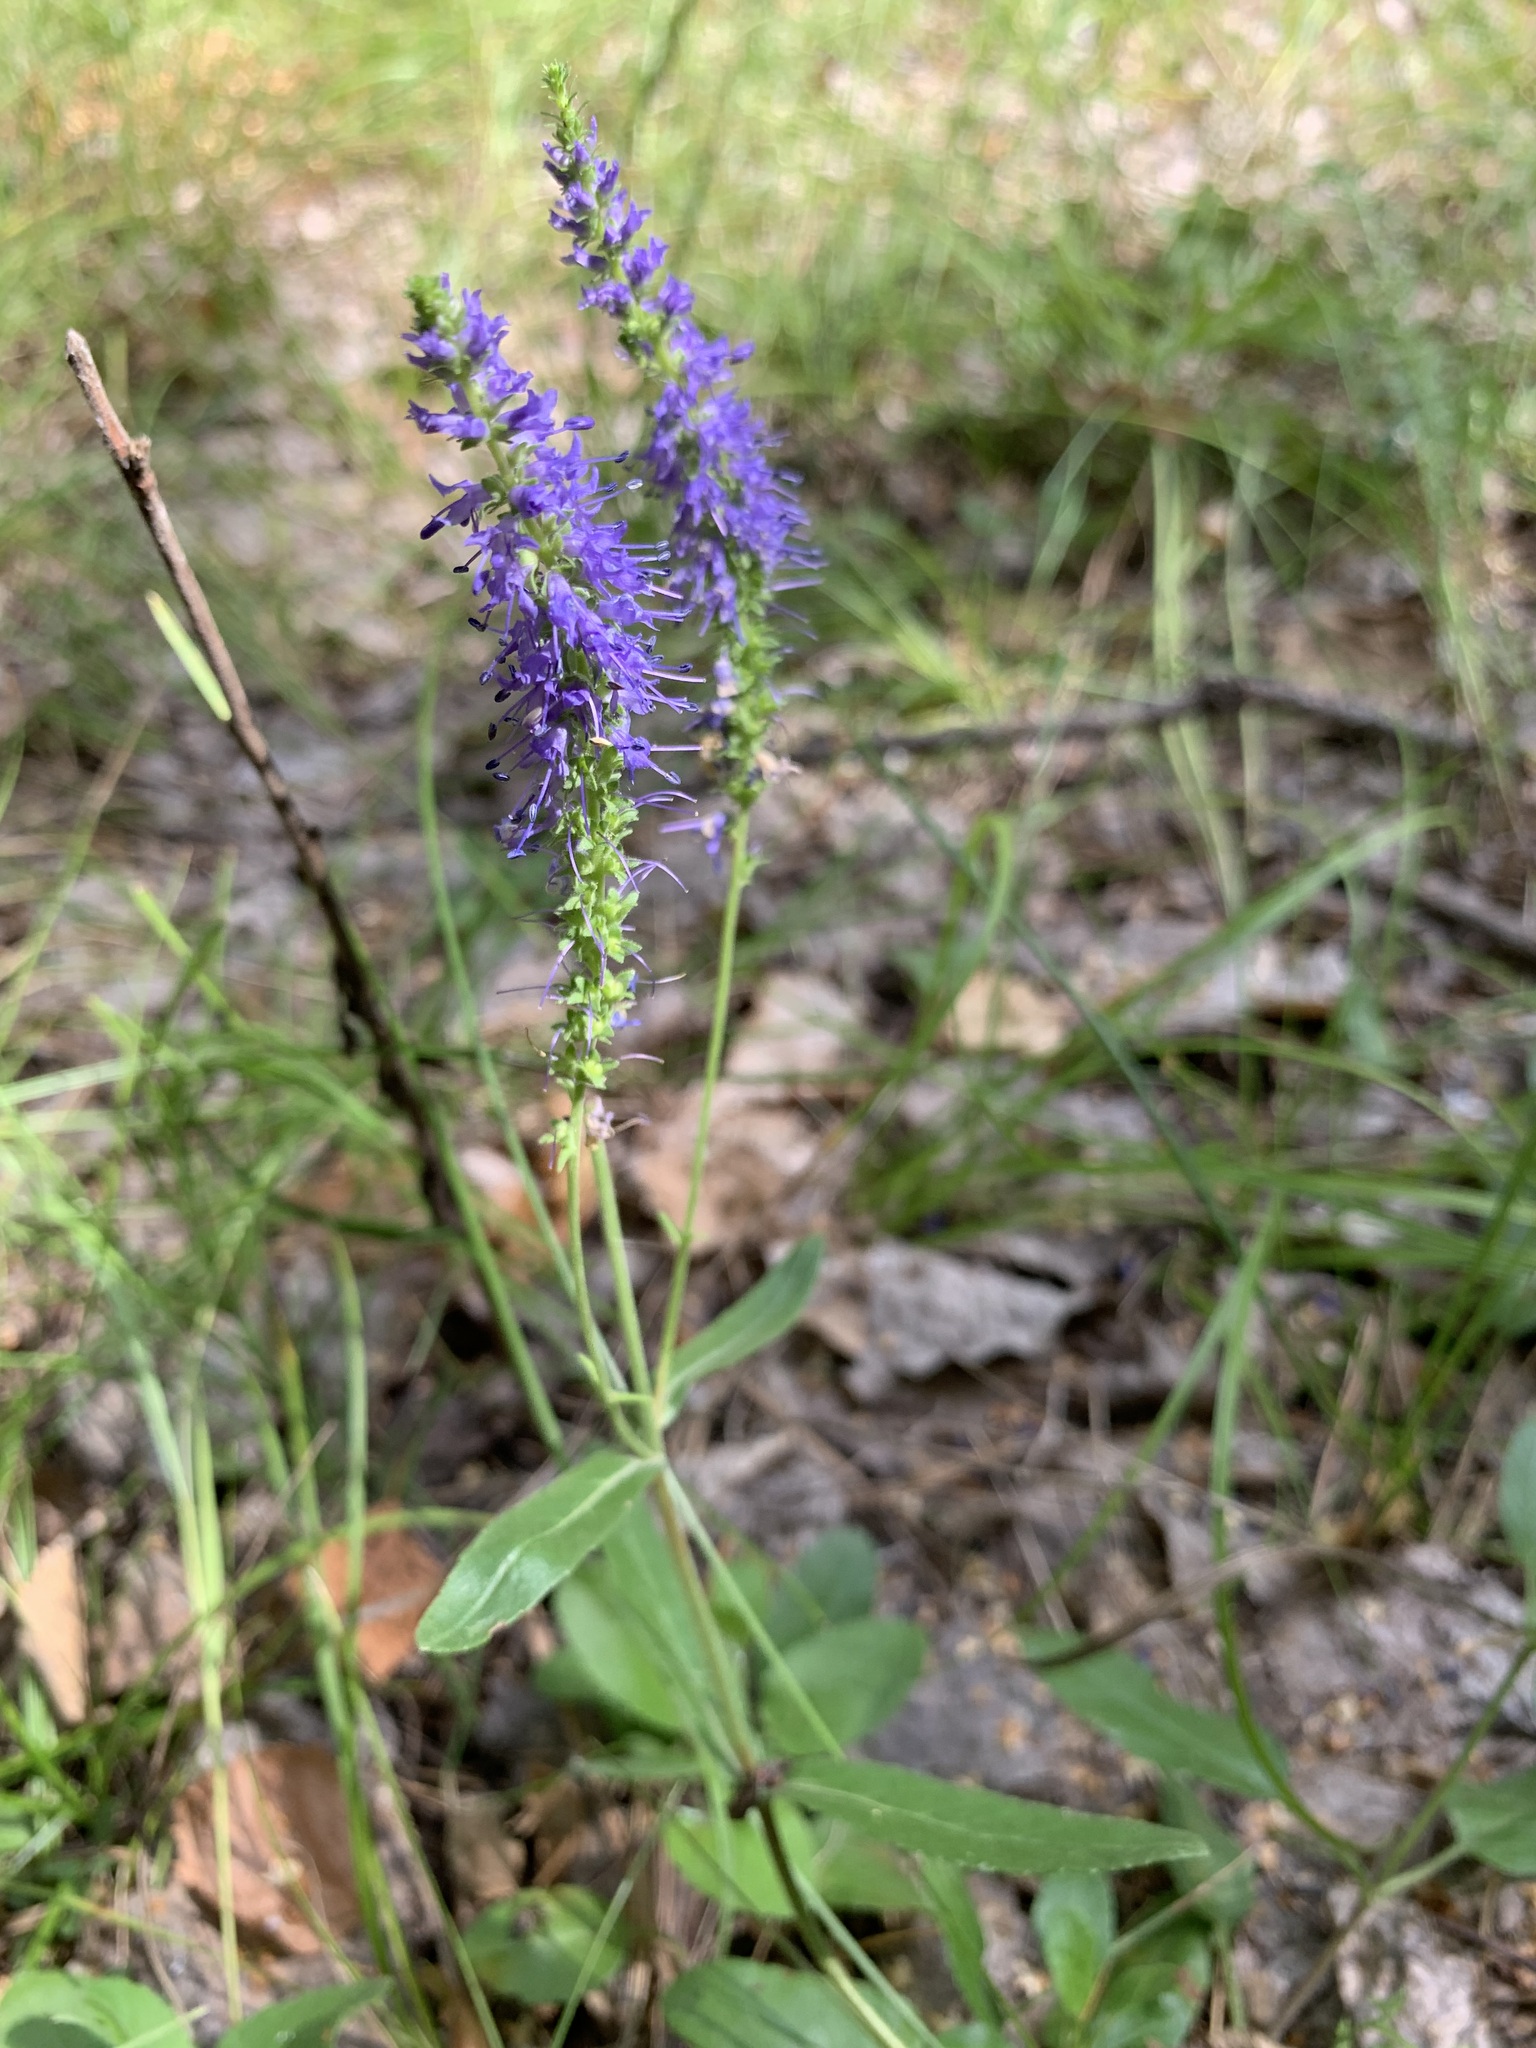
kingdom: Plantae
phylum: Tracheophyta
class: Magnoliopsida
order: Lamiales
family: Plantaginaceae
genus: Veronica
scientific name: Veronica spicata
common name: Spiked speedwell
